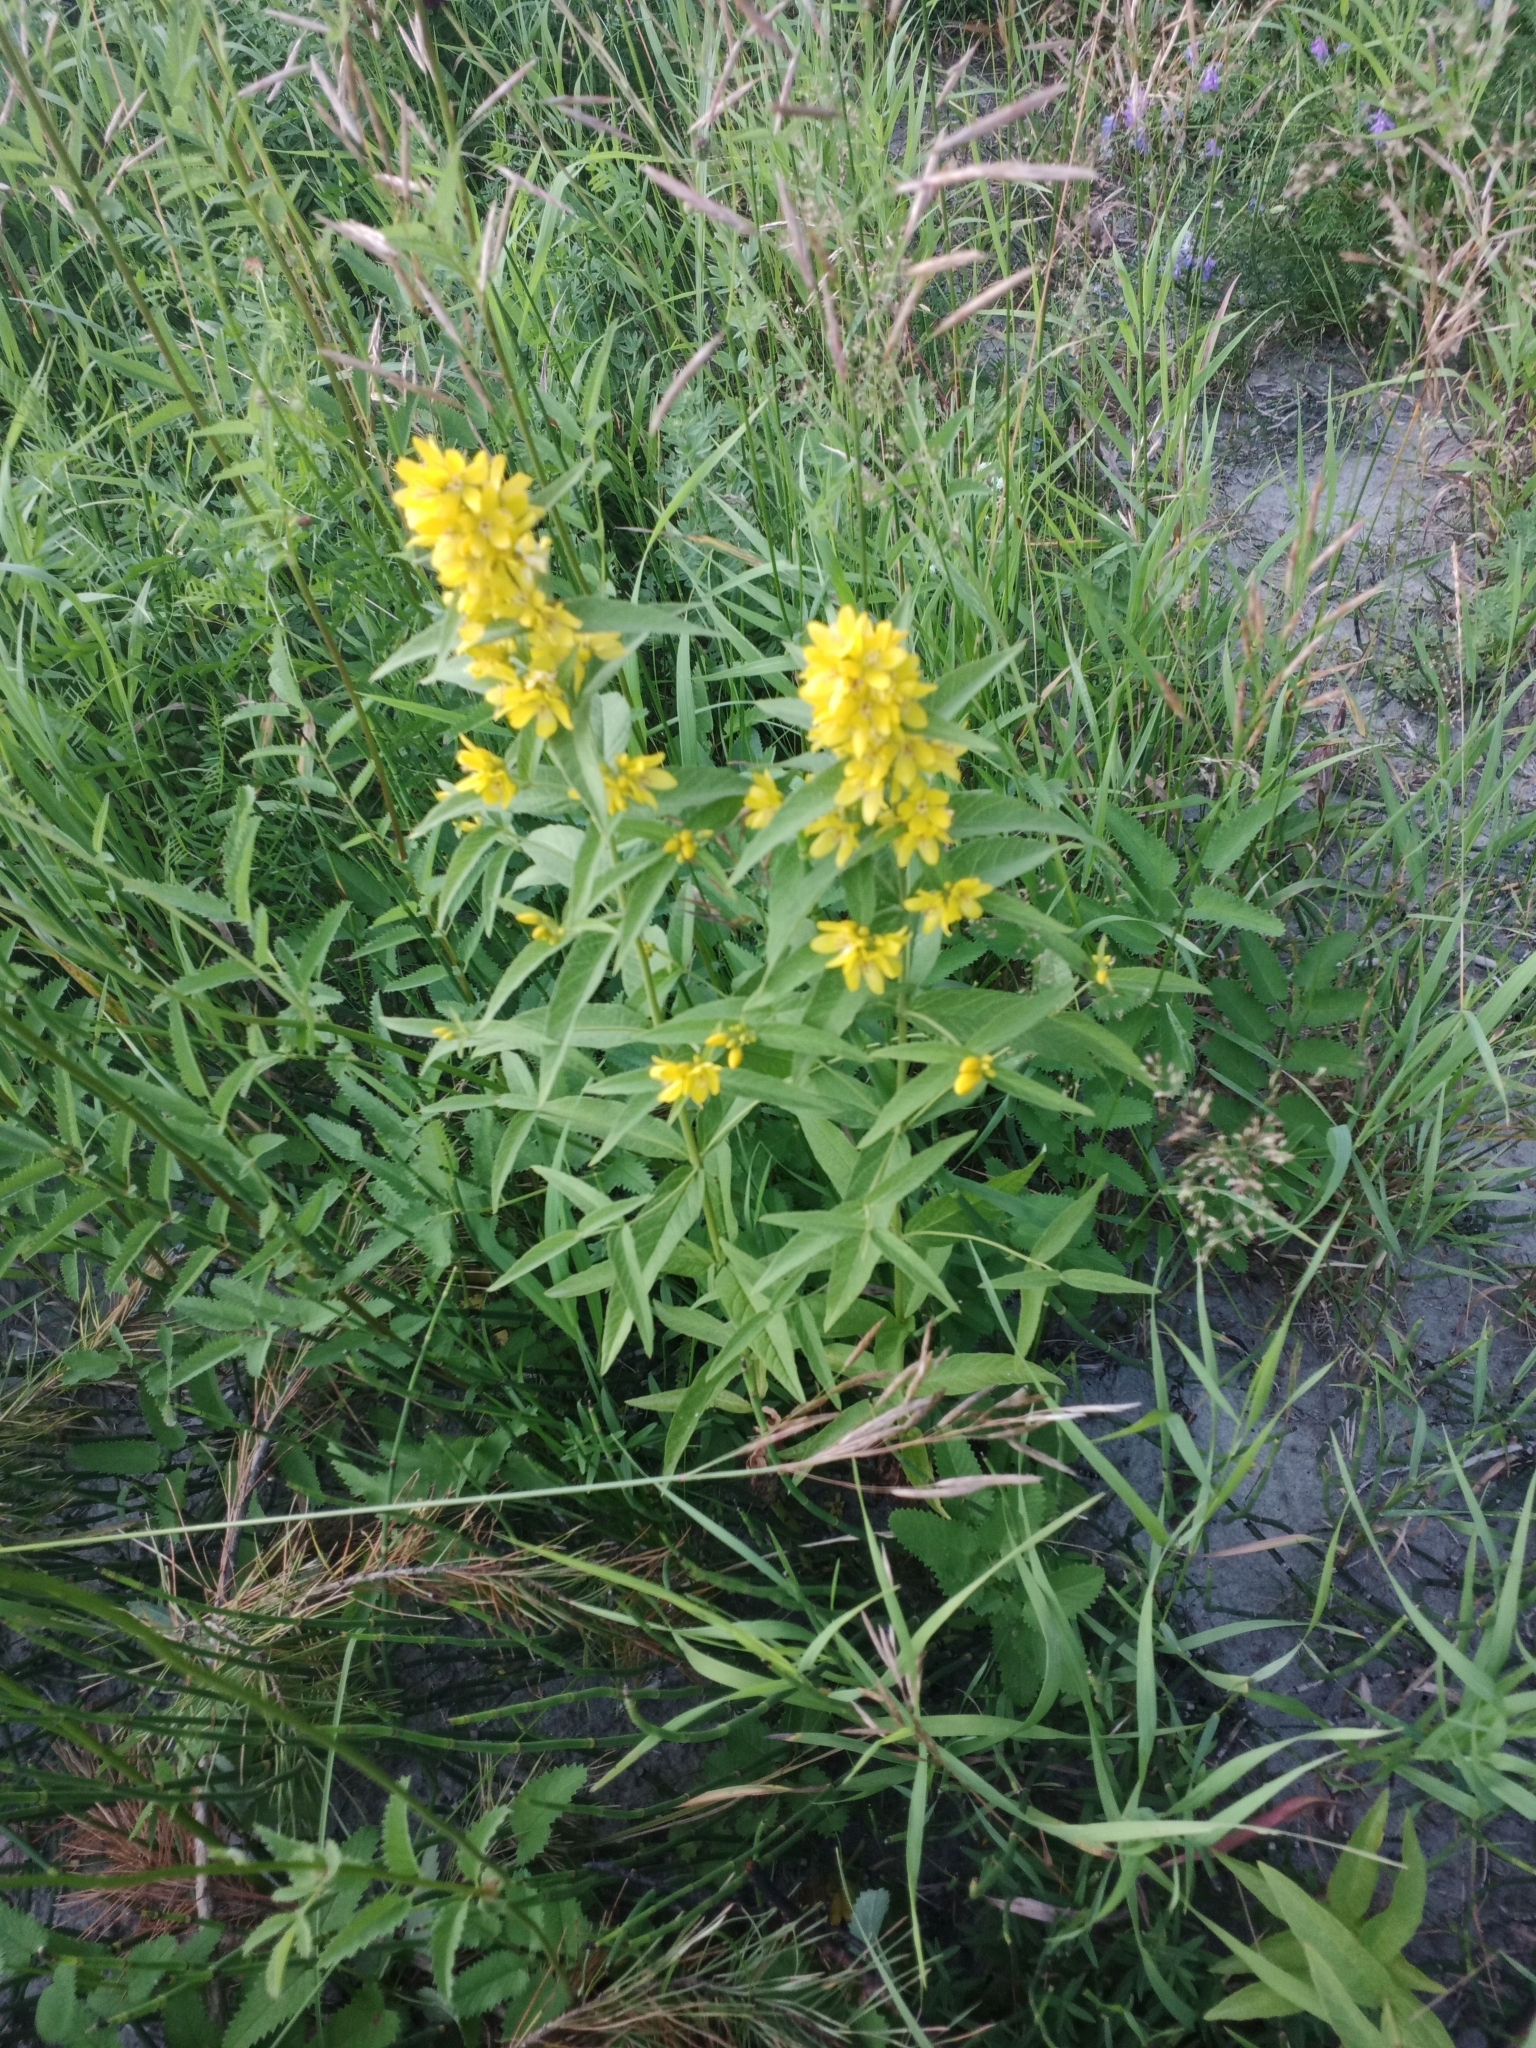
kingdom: Plantae
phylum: Tracheophyta
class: Magnoliopsida
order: Ericales
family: Primulaceae
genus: Lysimachia
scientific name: Lysimachia vulgaris
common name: Yellow loosestrife
